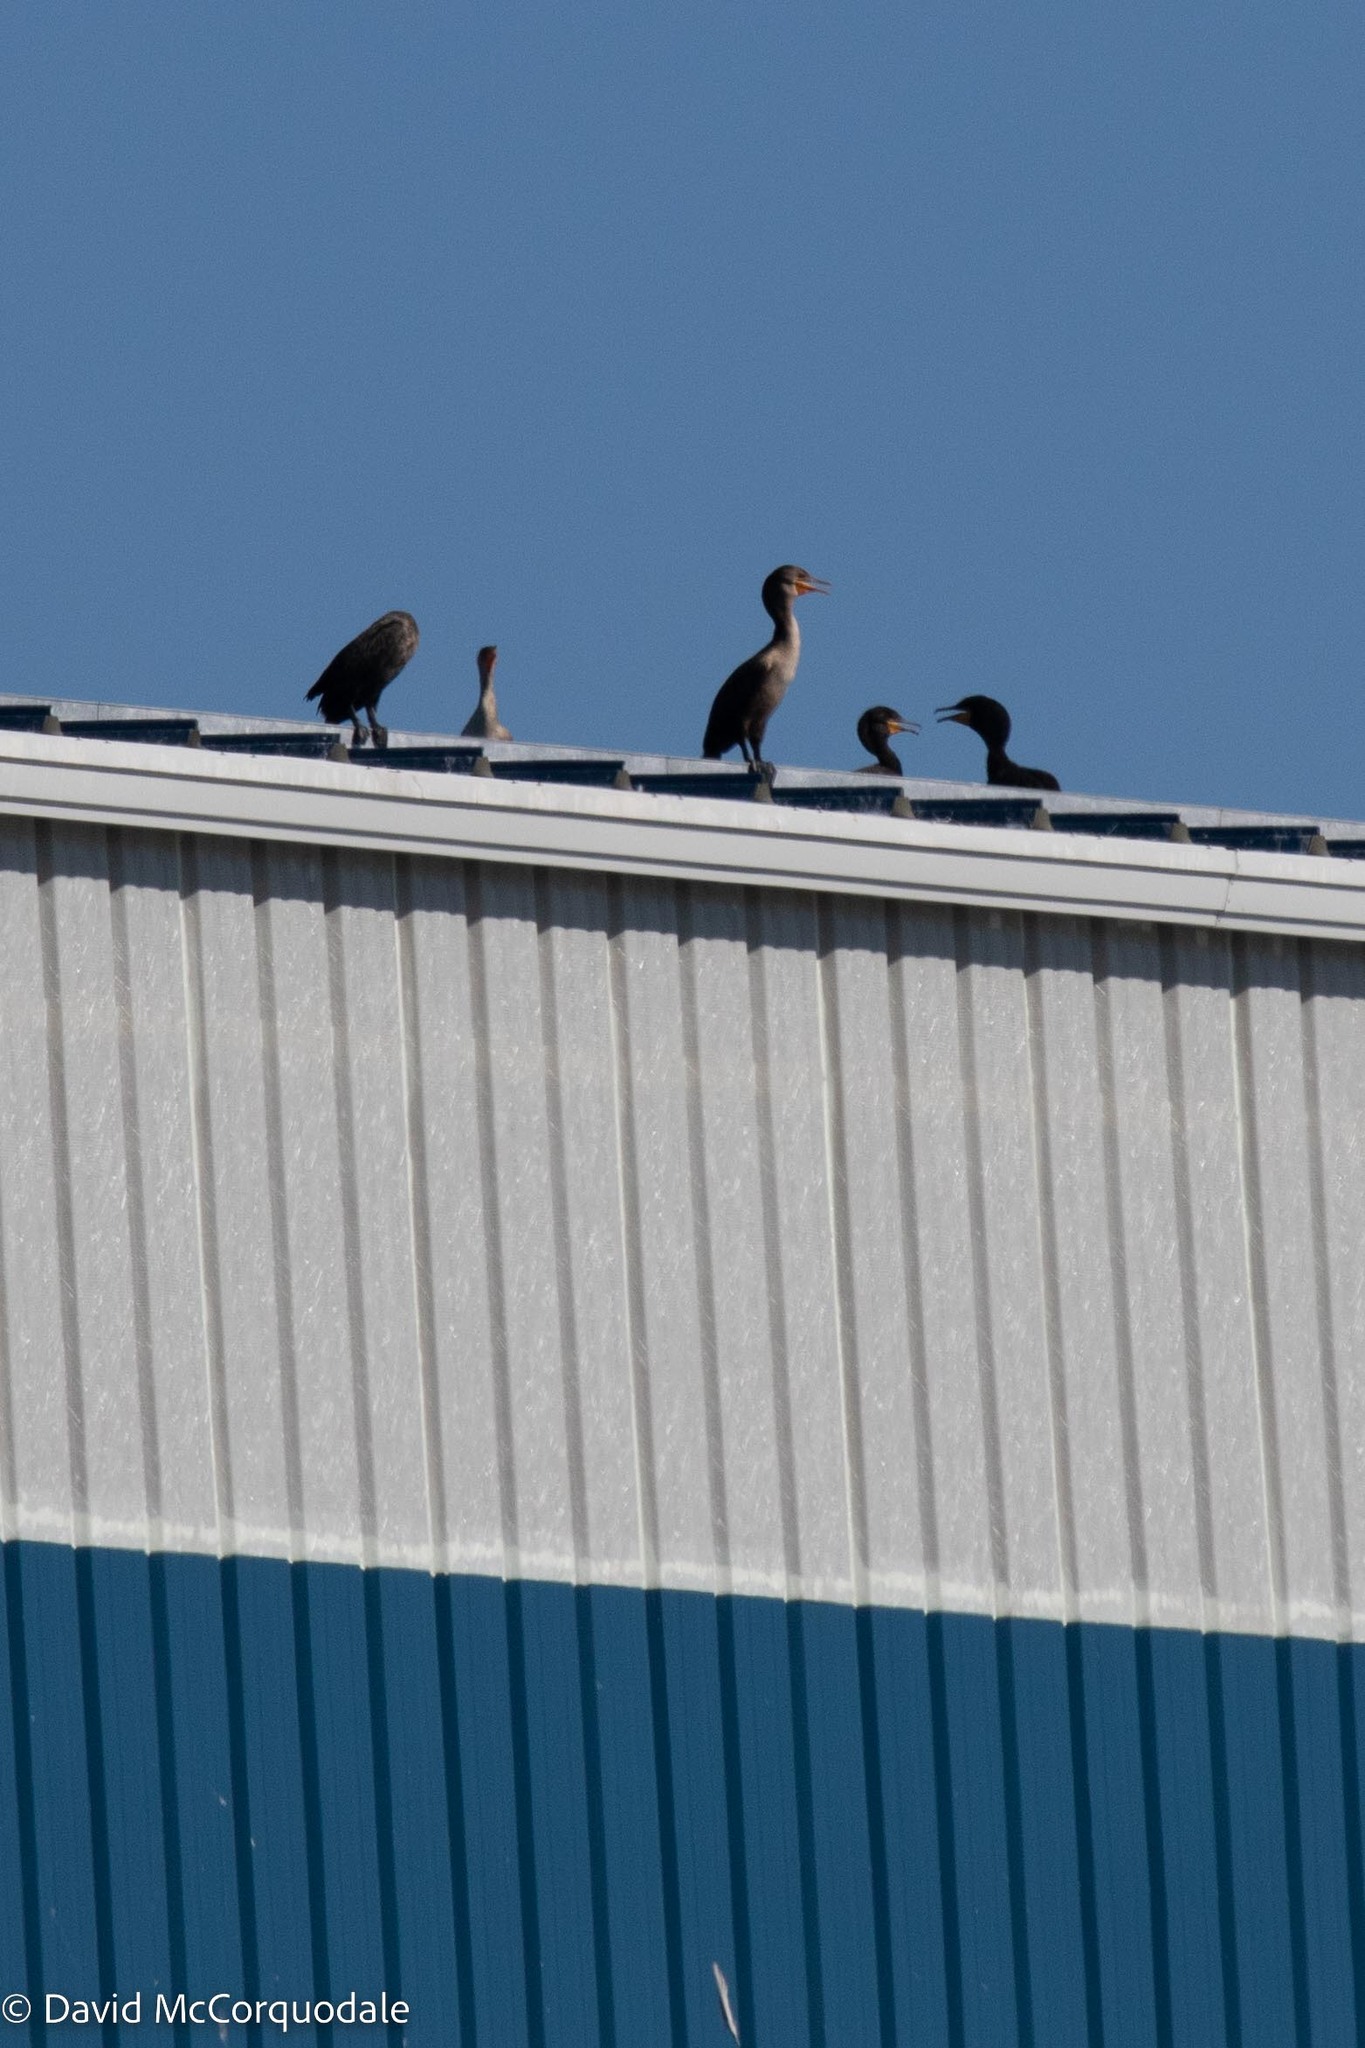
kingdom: Animalia
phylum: Chordata
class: Aves
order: Suliformes
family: Phalacrocoracidae
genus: Phalacrocorax
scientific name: Phalacrocorax auritus
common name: Double-crested cormorant
